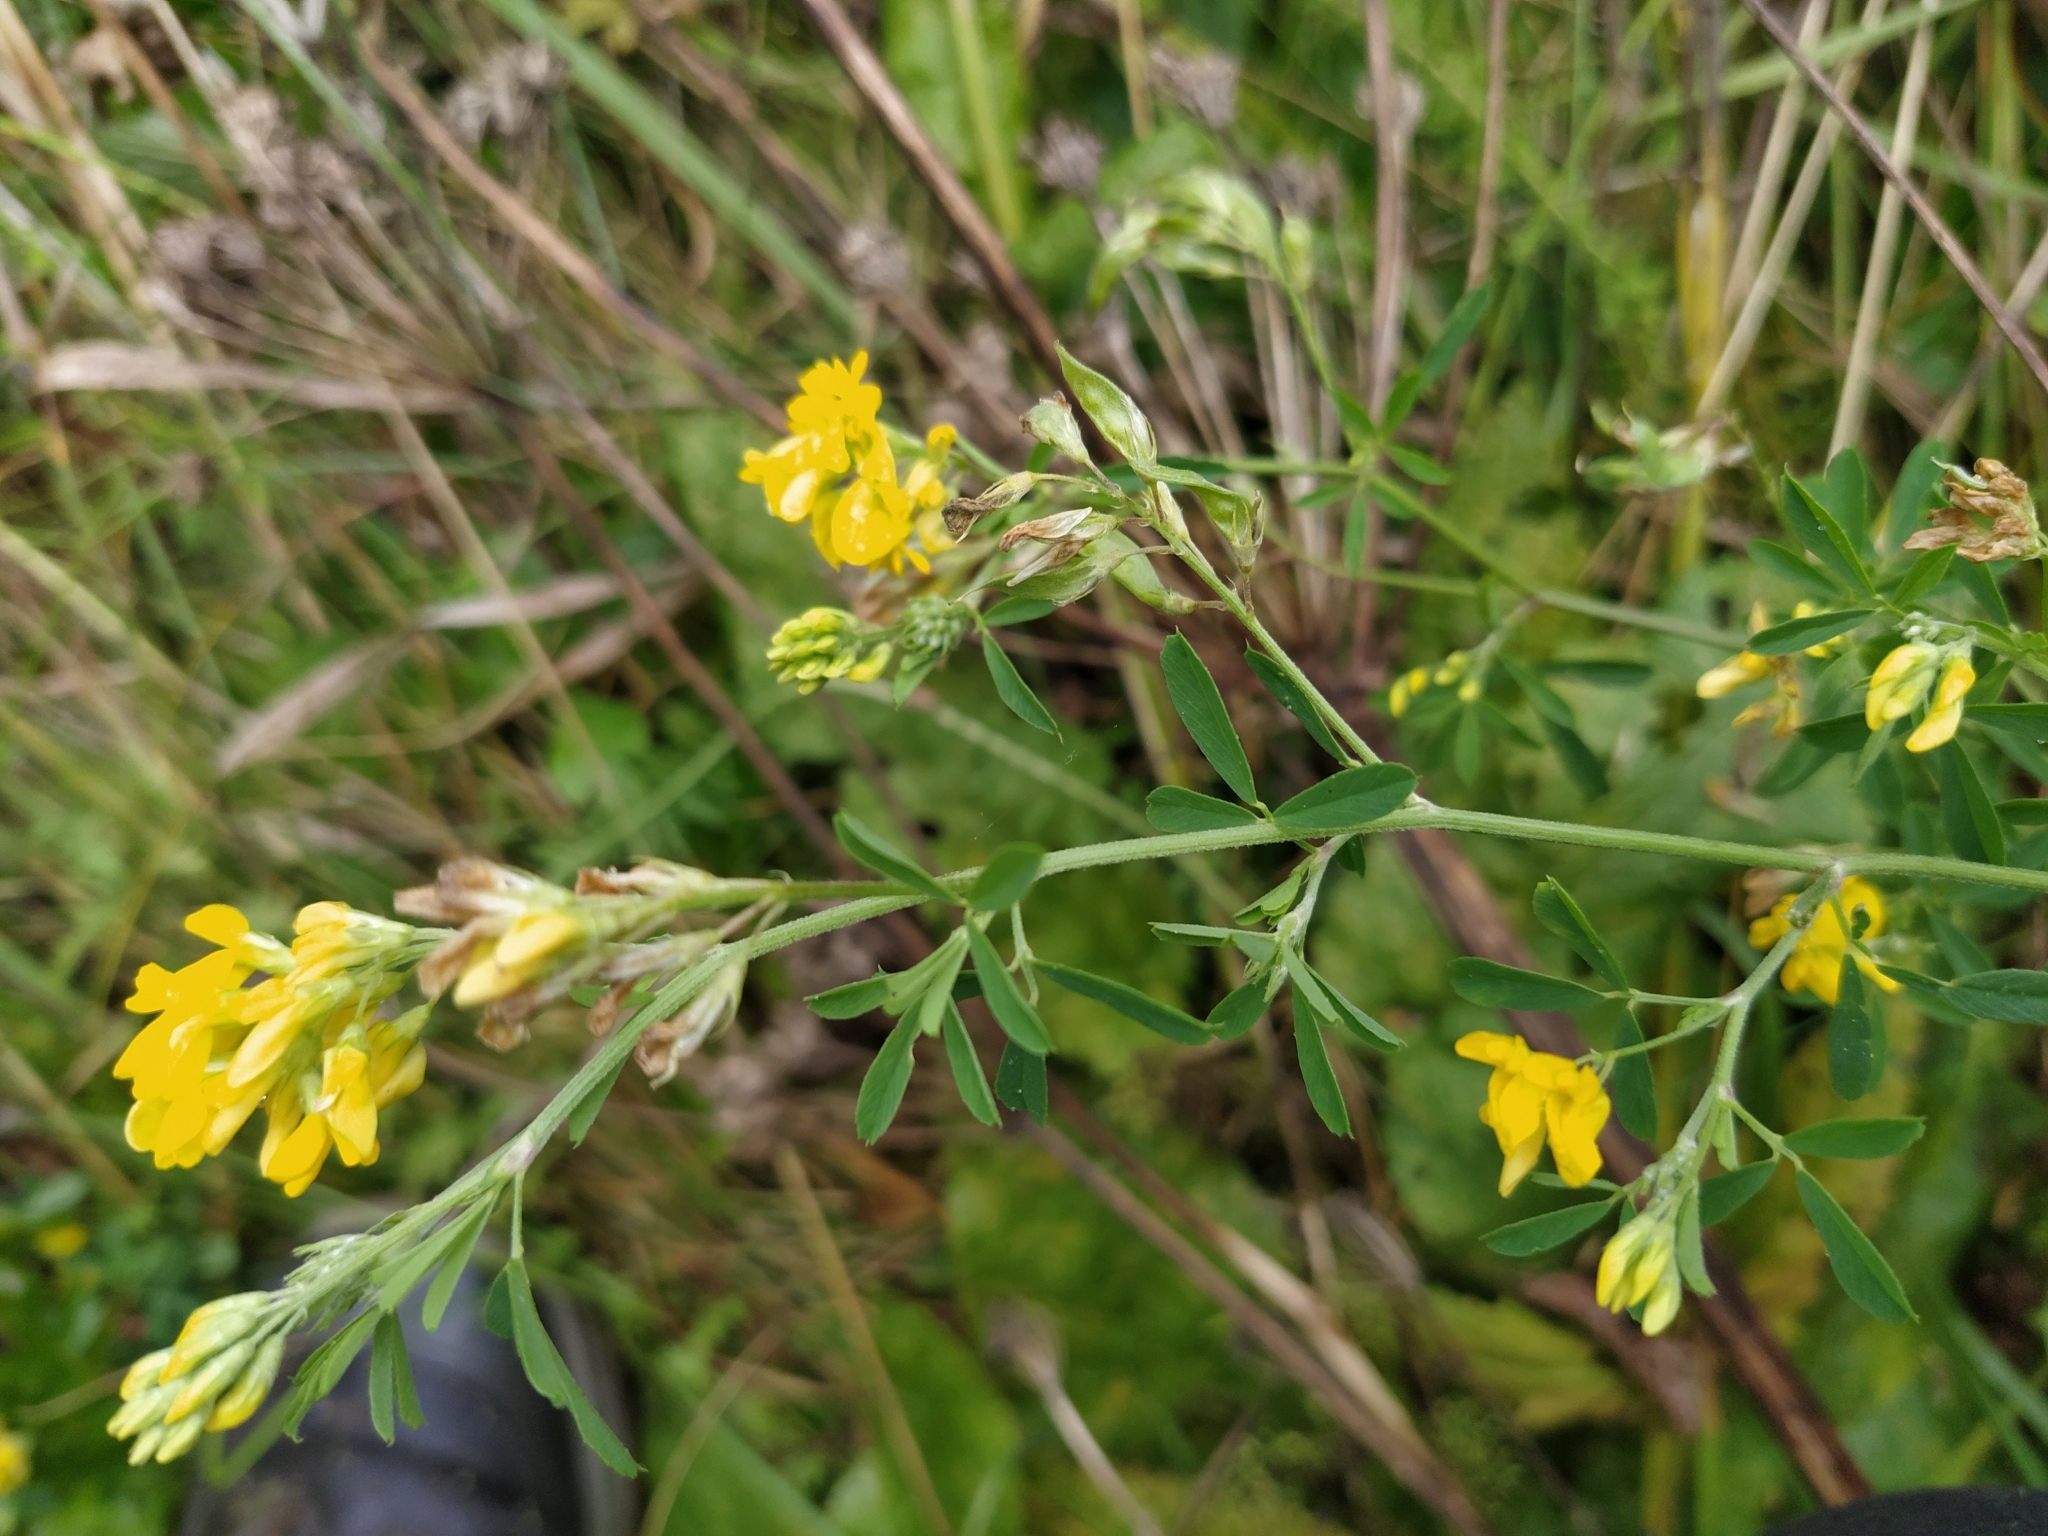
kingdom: Plantae
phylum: Tracheophyta
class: Magnoliopsida
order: Fabales
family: Fabaceae
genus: Medicago
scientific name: Medicago falcata
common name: Sickle medick
